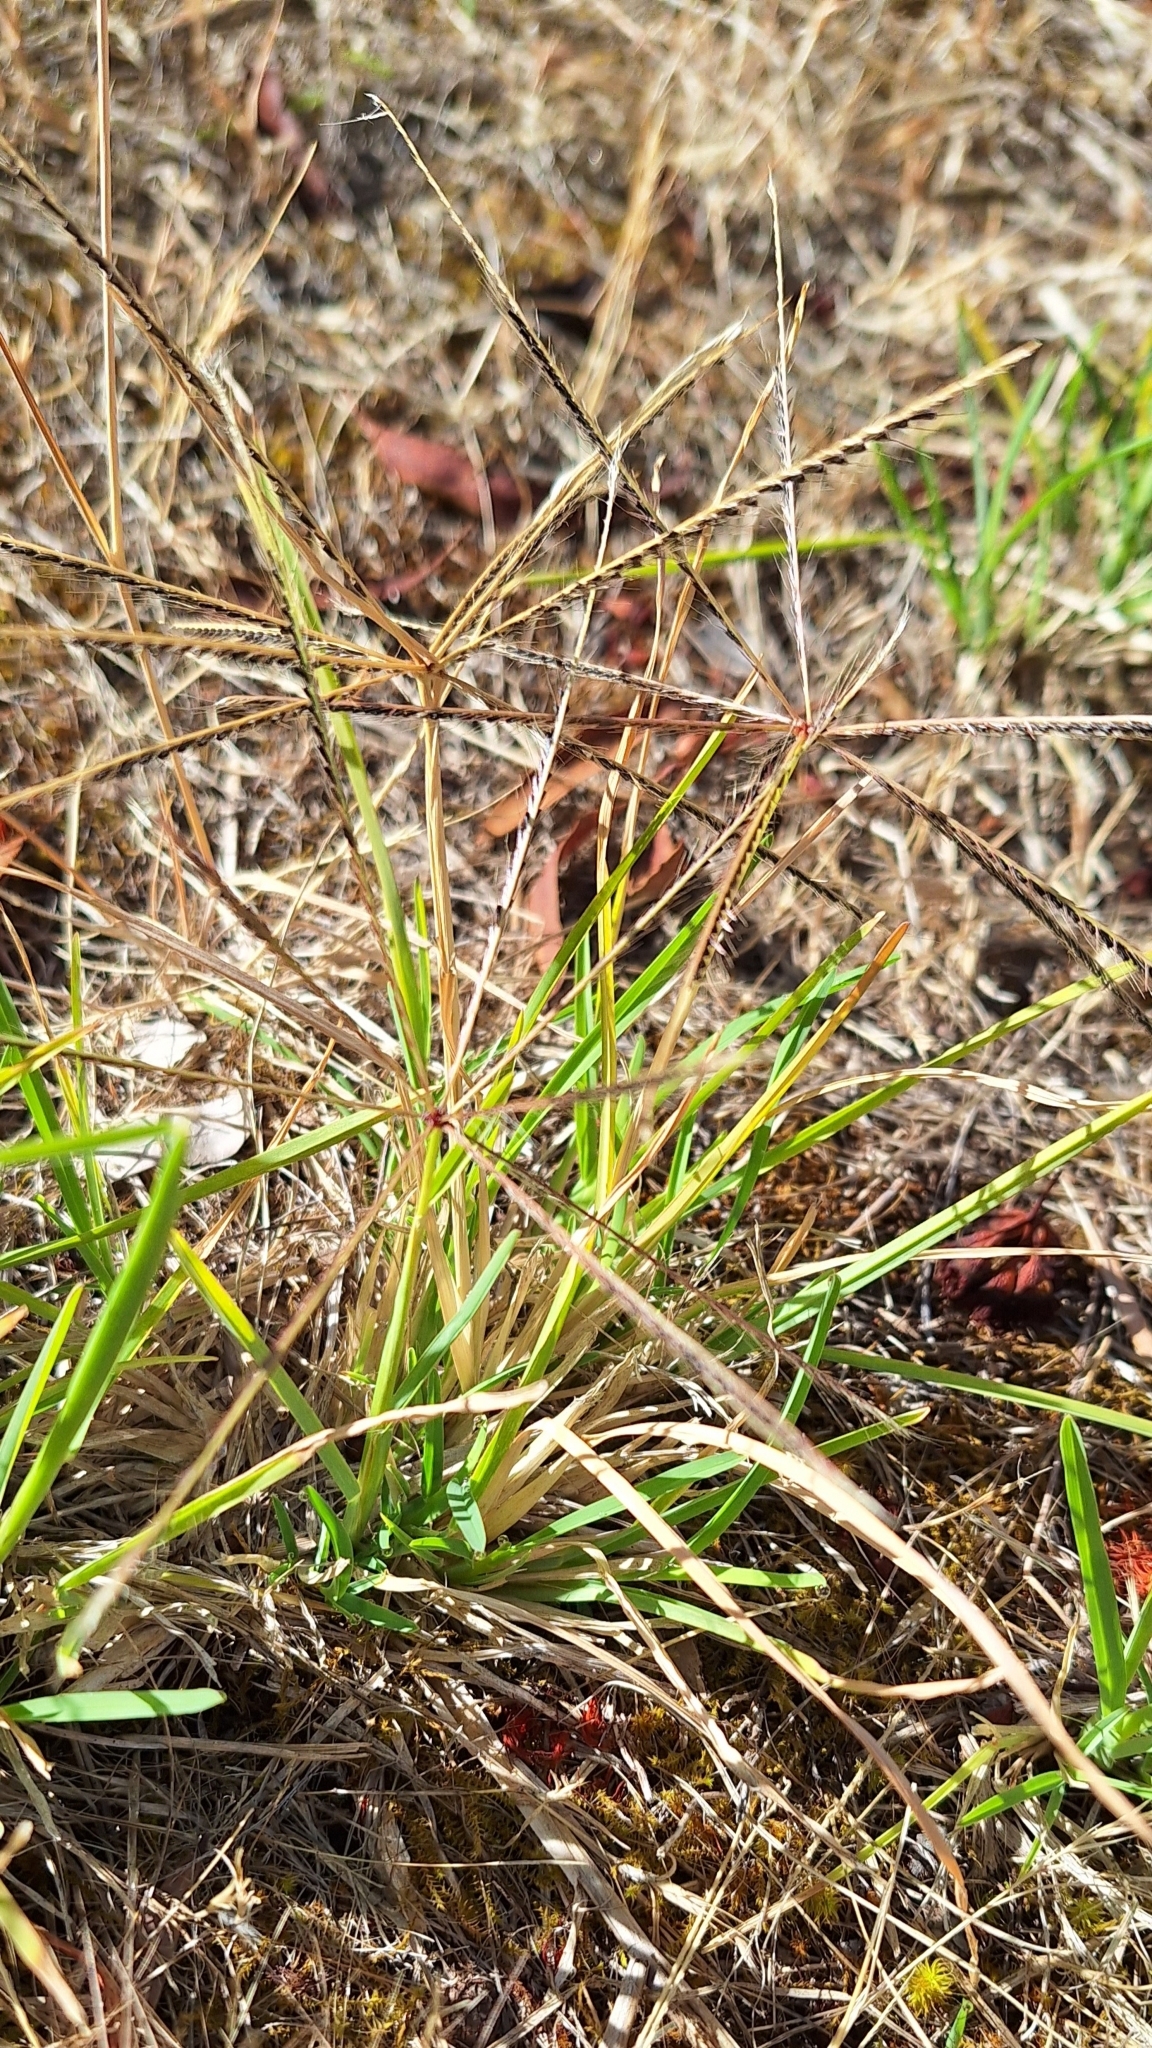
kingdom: Plantae
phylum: Tracheophyta
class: Liliopsida
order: Poales
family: Poaceae
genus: Chloris
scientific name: Chloris truncata
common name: Windmill-grass
